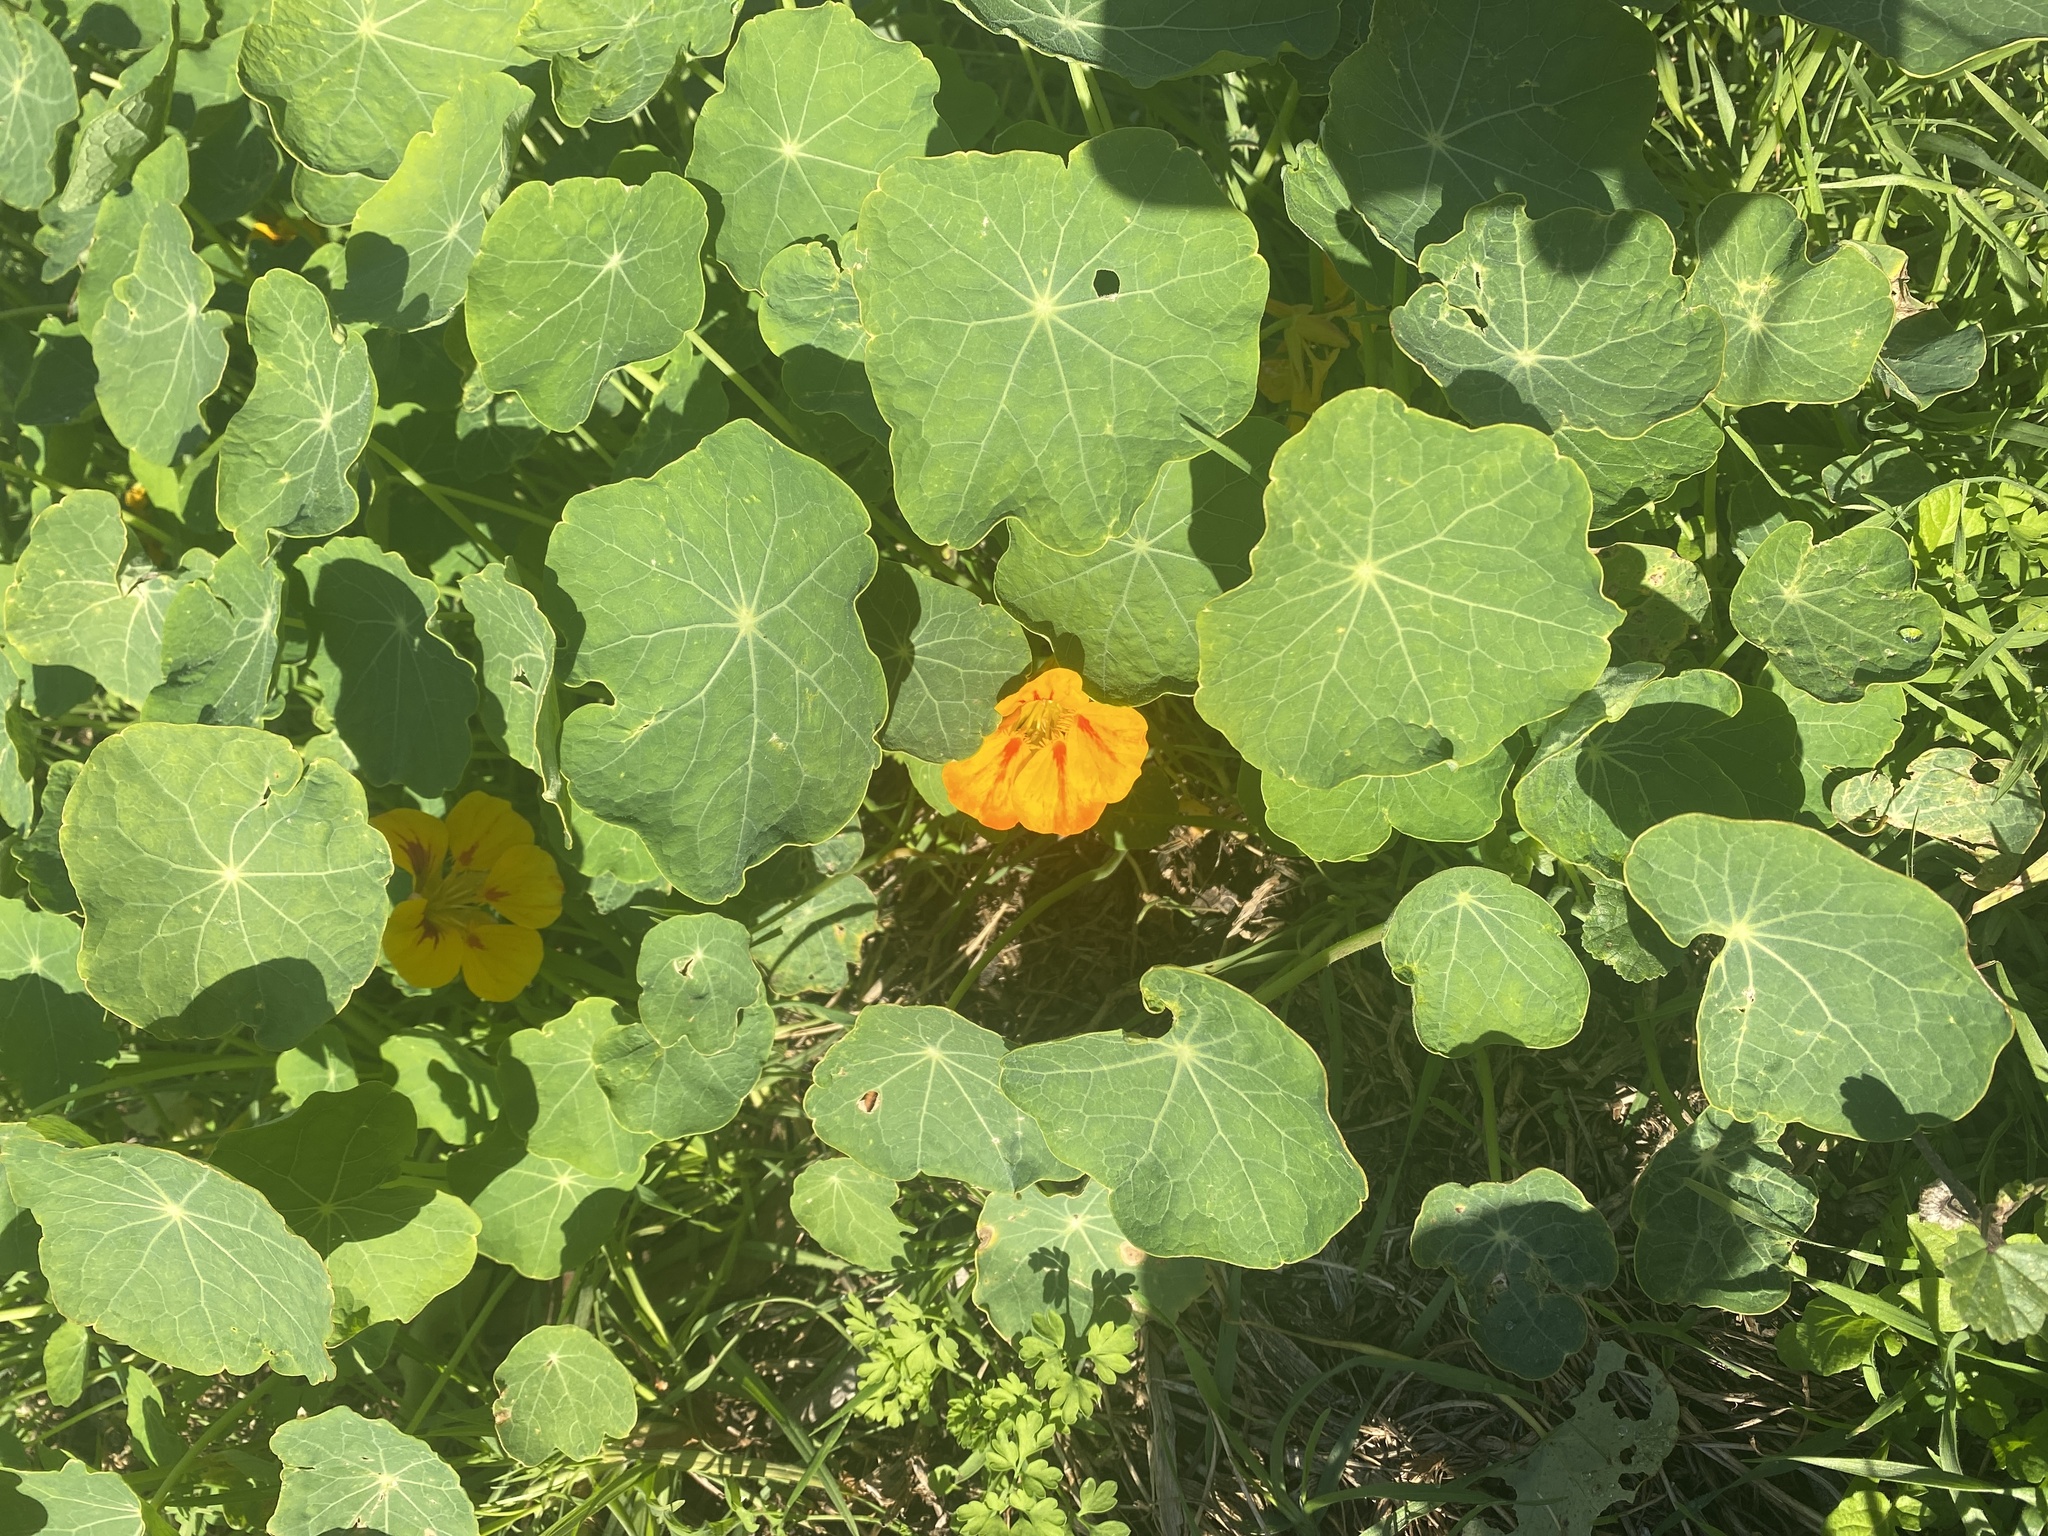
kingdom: Plantae
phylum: Tracheophyta
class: Magnoliopsida
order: Brassicales
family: Tropaeolaceae
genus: Tropaeolum
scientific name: Tropaeolum majus
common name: Nasturtium
